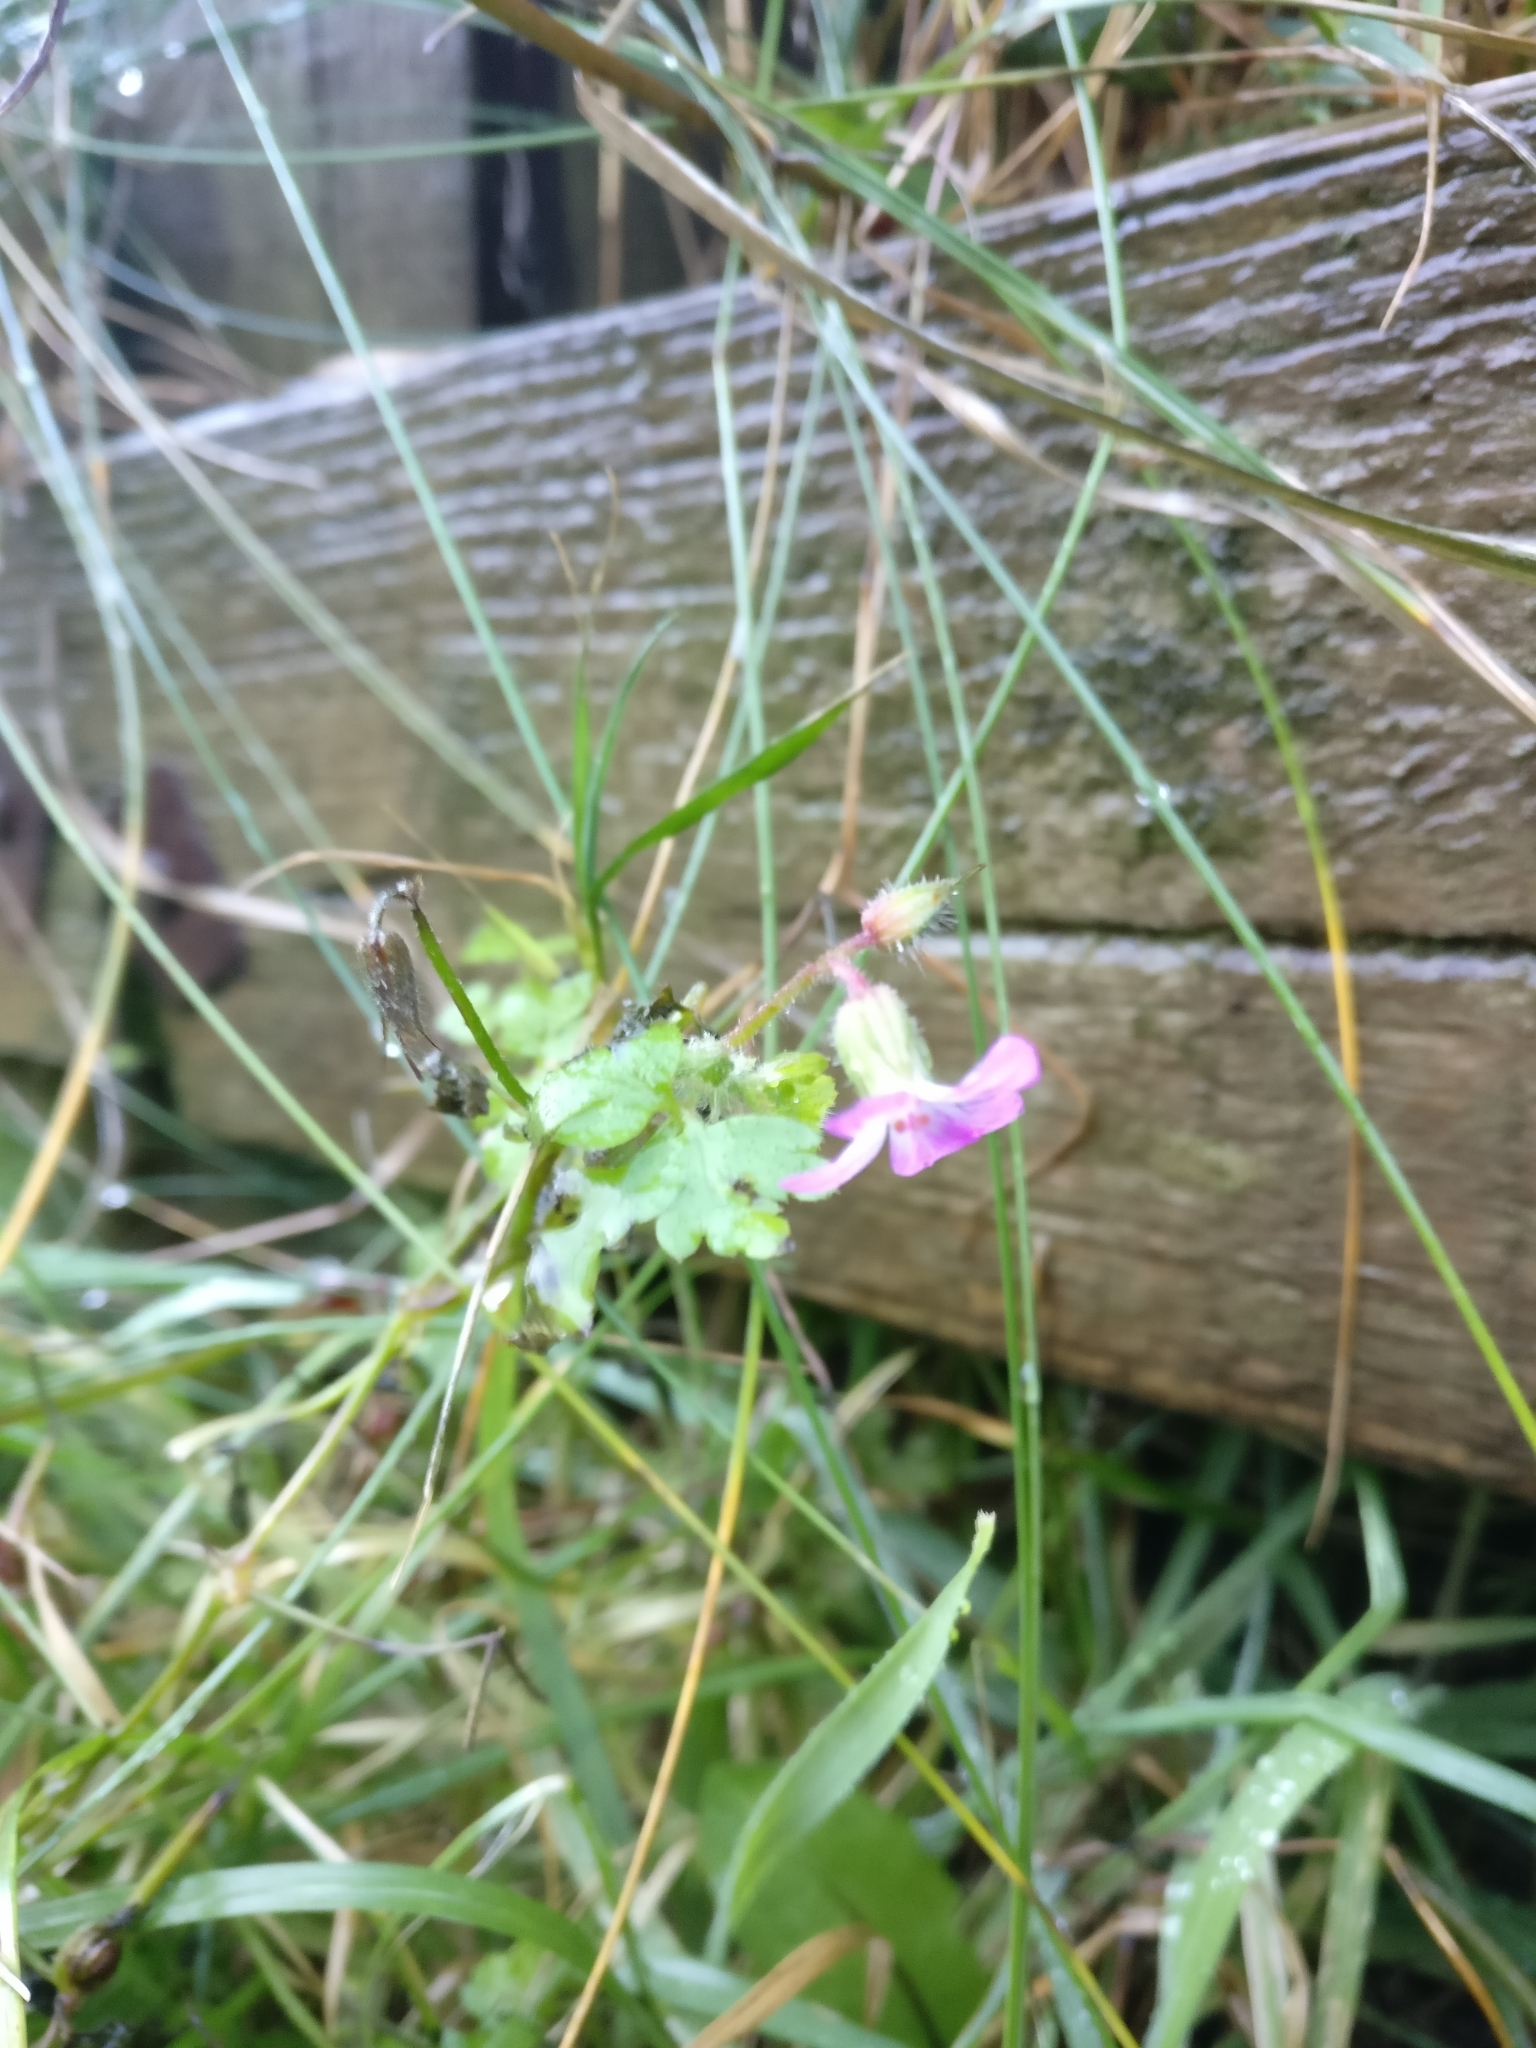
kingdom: Plantae
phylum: Tracheophyta
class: Magnoliopsida
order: Geraniales
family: Geraniaceae
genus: Geranium
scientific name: Geranium robertianum
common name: Herb-robert
